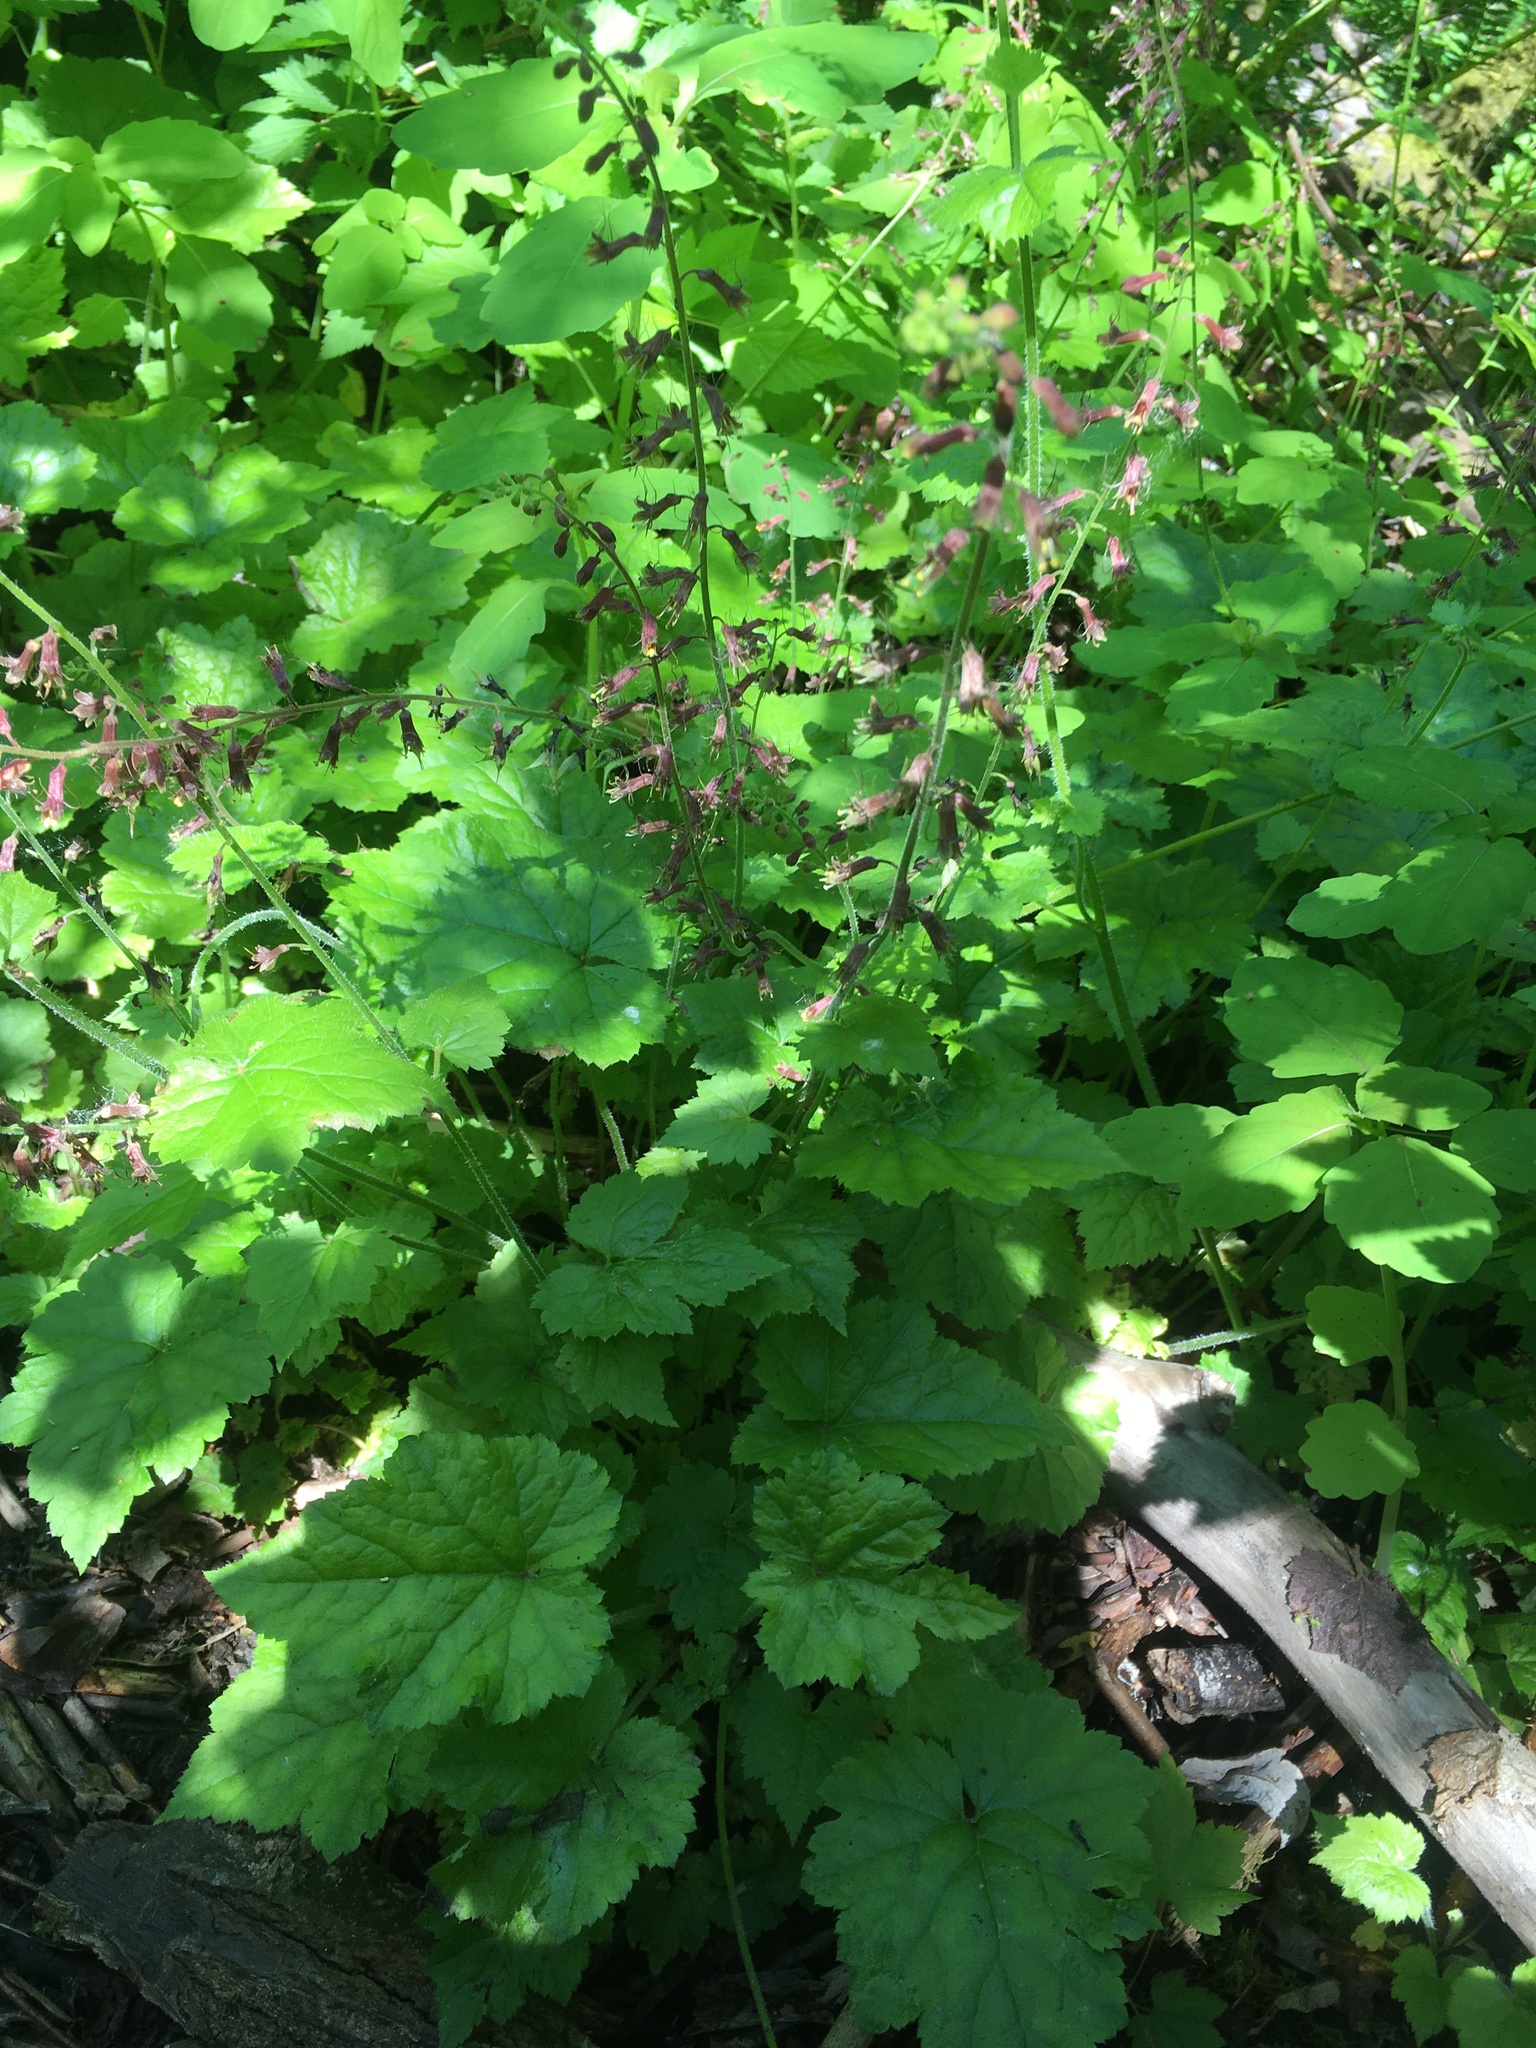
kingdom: Plantae
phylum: Tracheophyta
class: Magnoliopsida
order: Saxifragales
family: Saxifragaceae
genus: Tolmiea
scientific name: Tolmiea menziesii
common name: Pick-a-back-plant
